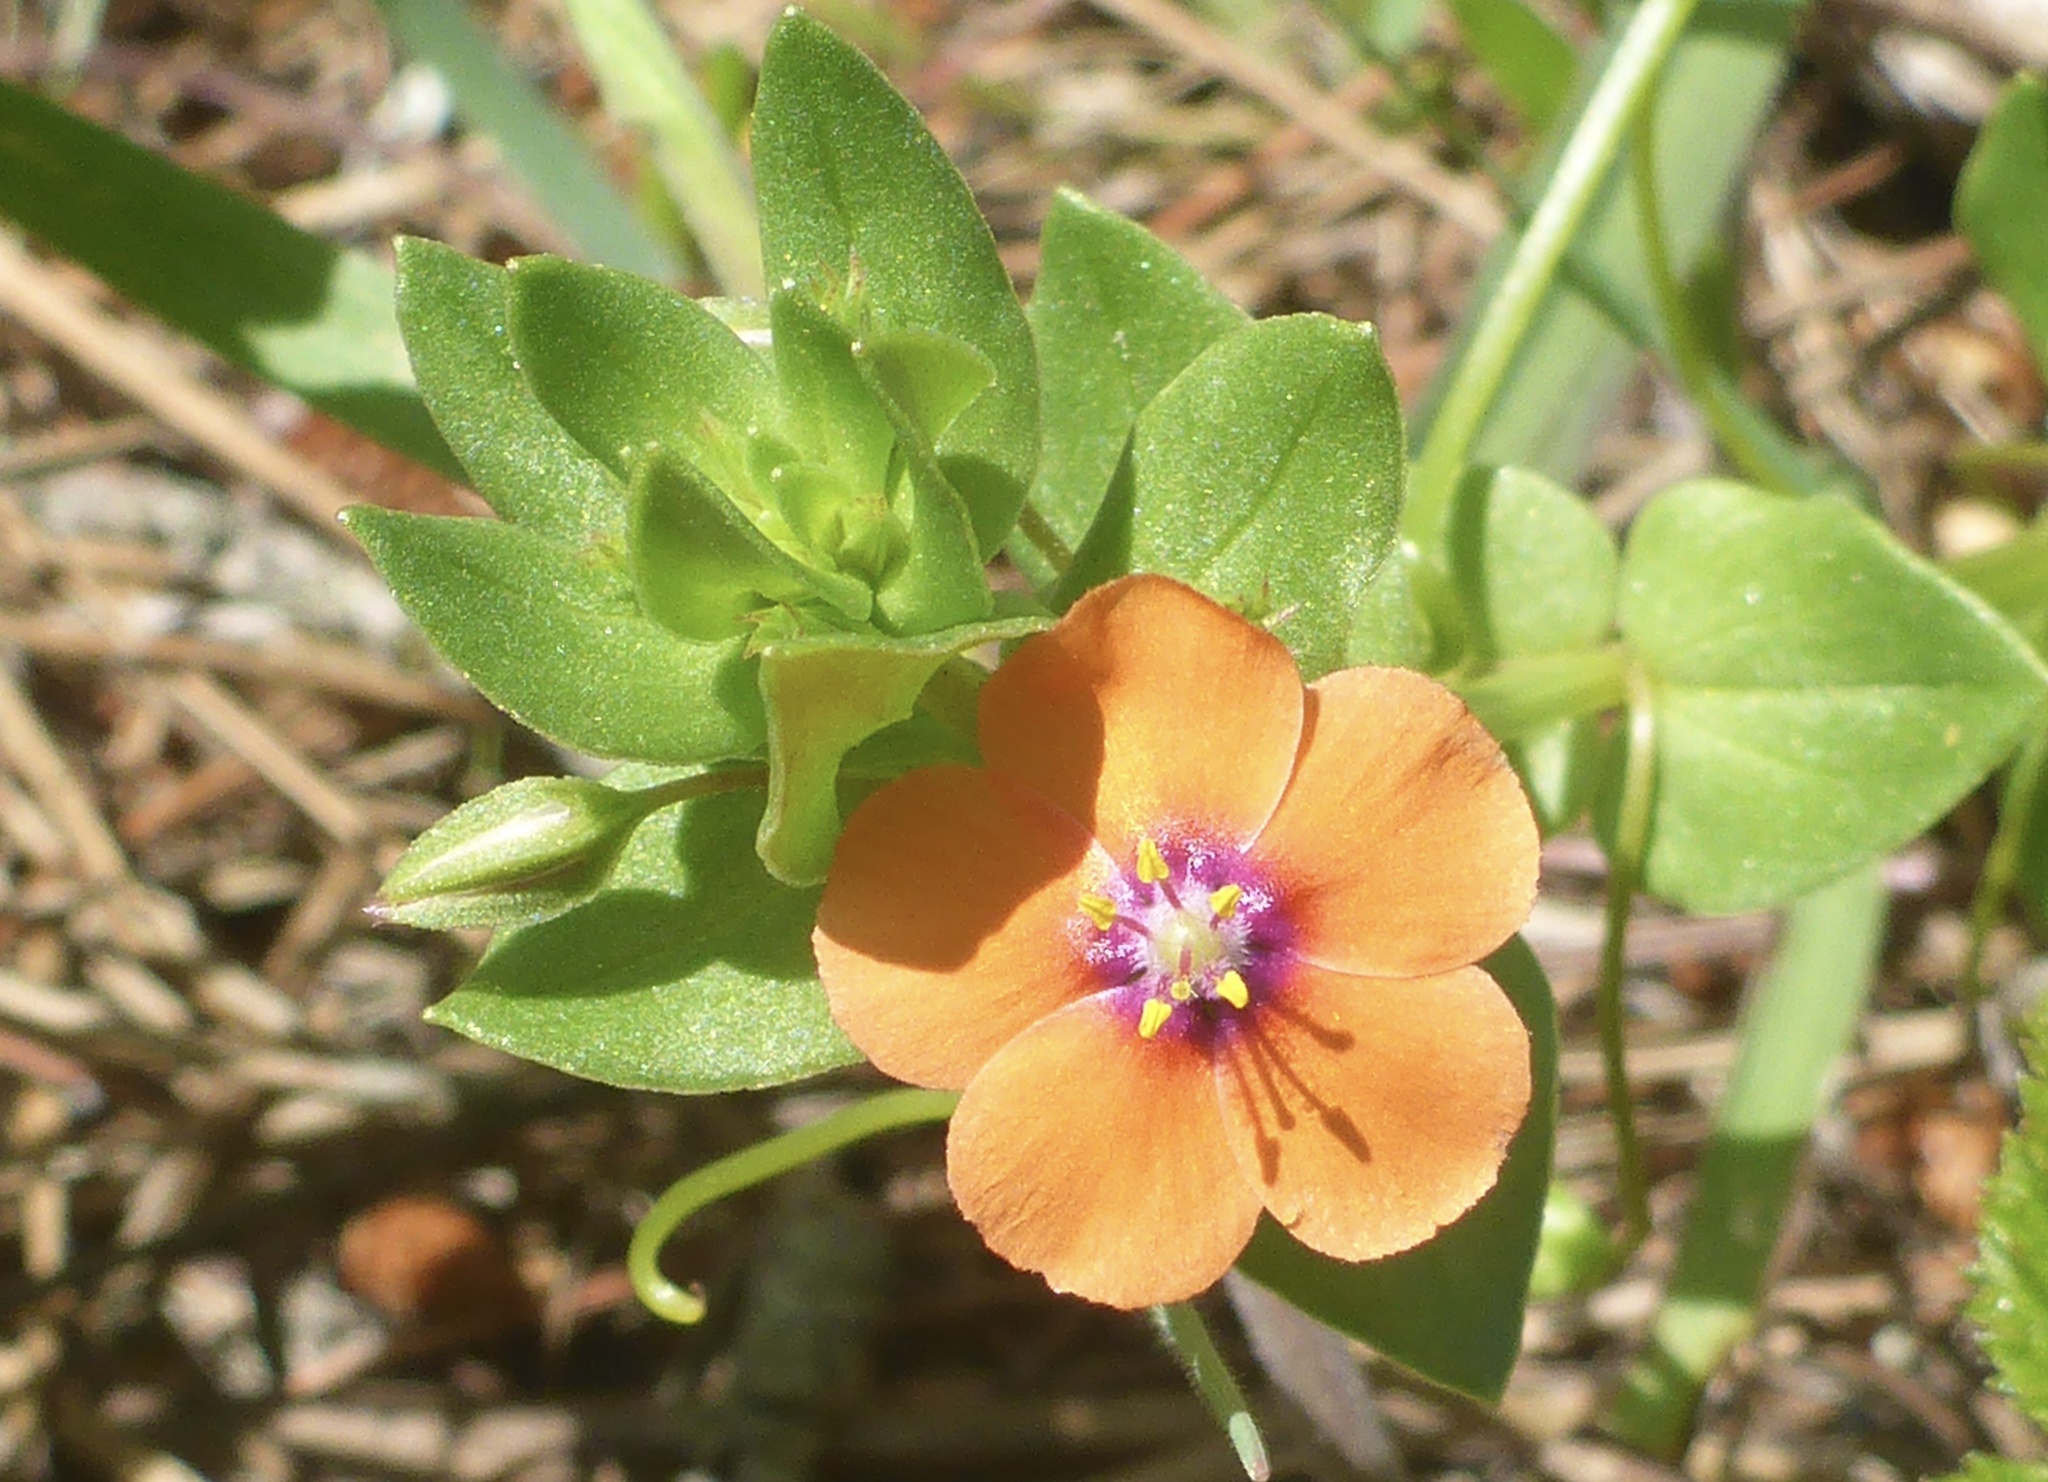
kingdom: Plantae
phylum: Tracheophyta
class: Magnoliopsida
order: Ericales
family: Primulaceae
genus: Lysimachia
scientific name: Lysimachia arvensis
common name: Scarlet pimpernel
